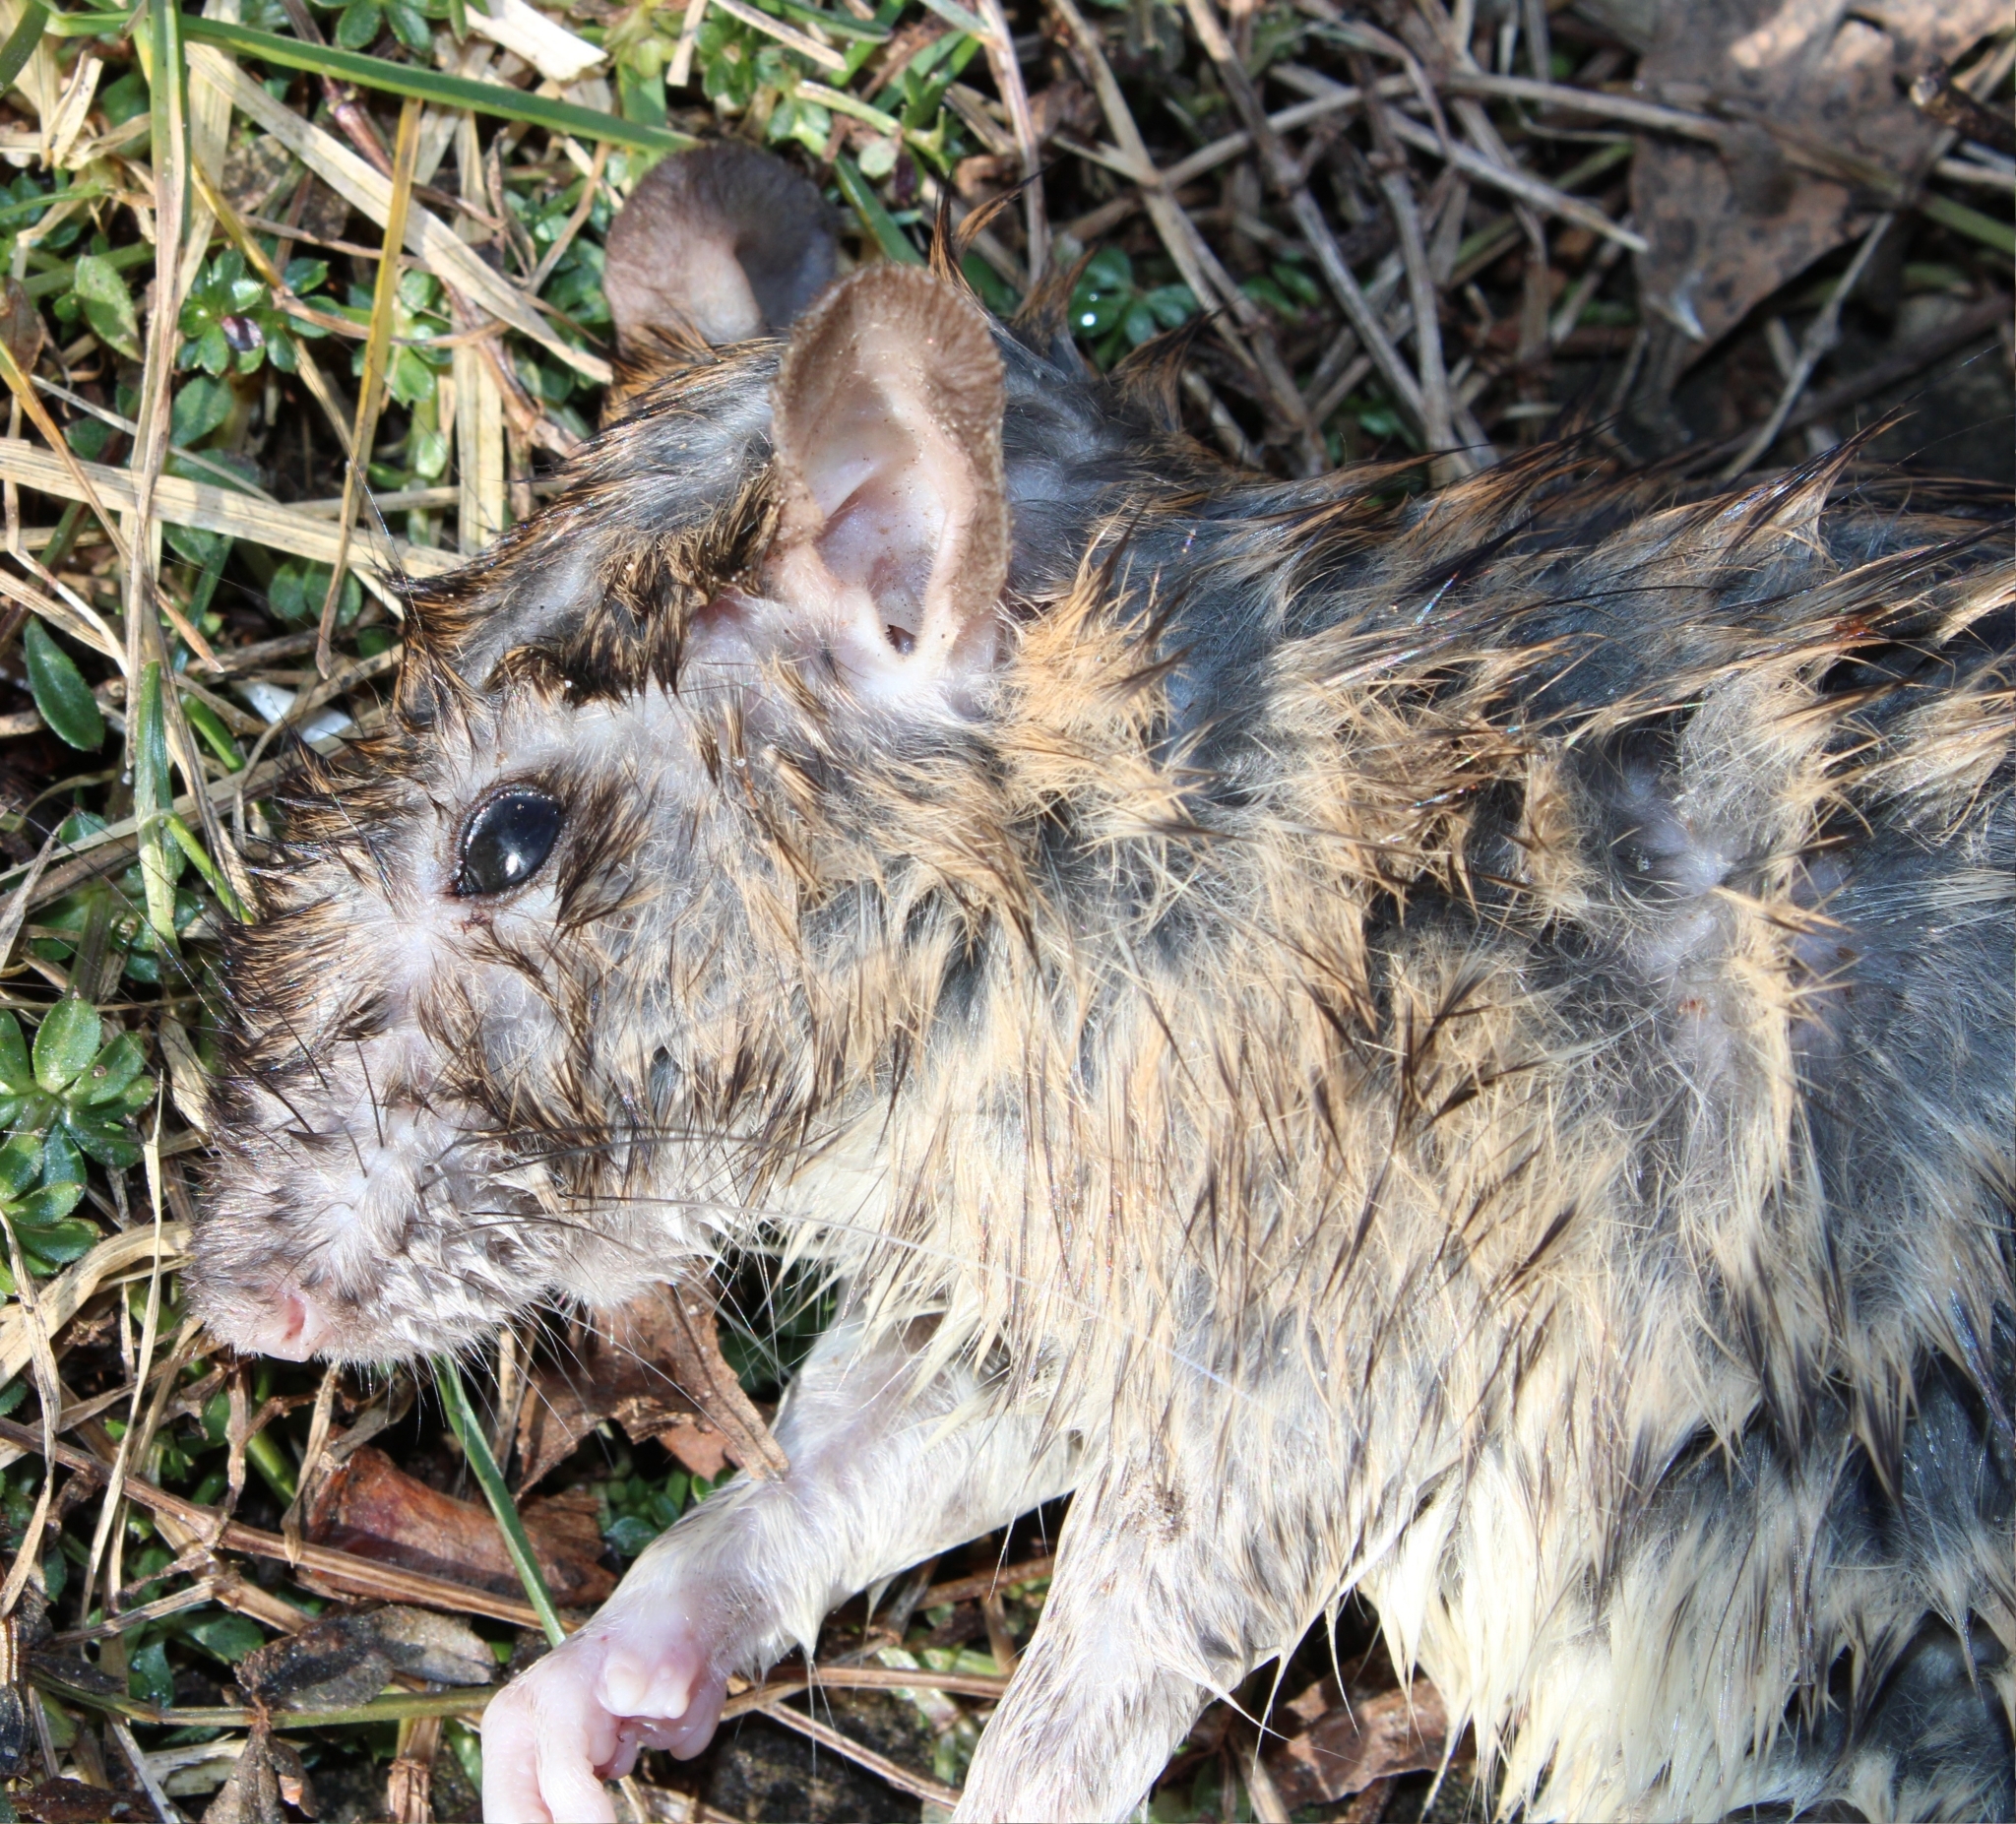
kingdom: Animalia
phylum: Chordata
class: Mammalia
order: Rodentia
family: Muridae
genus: Rattus
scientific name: Rattus norvegicus
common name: Brown rat
